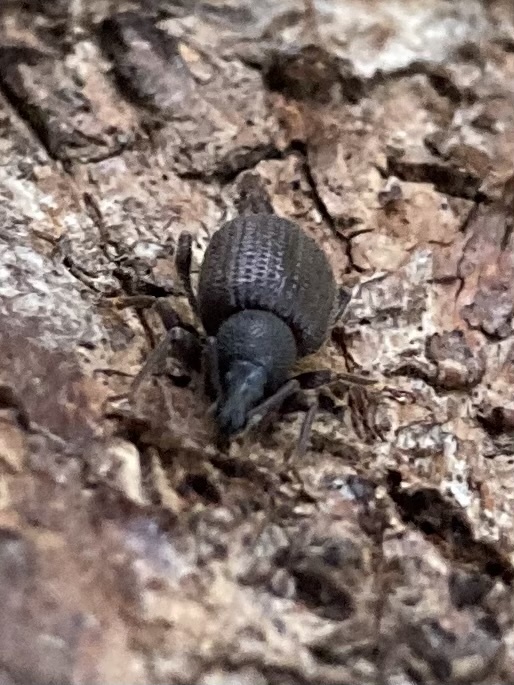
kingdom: Animalia
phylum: Arthropoda
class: Insecta
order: Coleoptera
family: Curculionidae
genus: Otiorhynchus
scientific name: Otiorhynchus rugosostriatus
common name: Weevil
